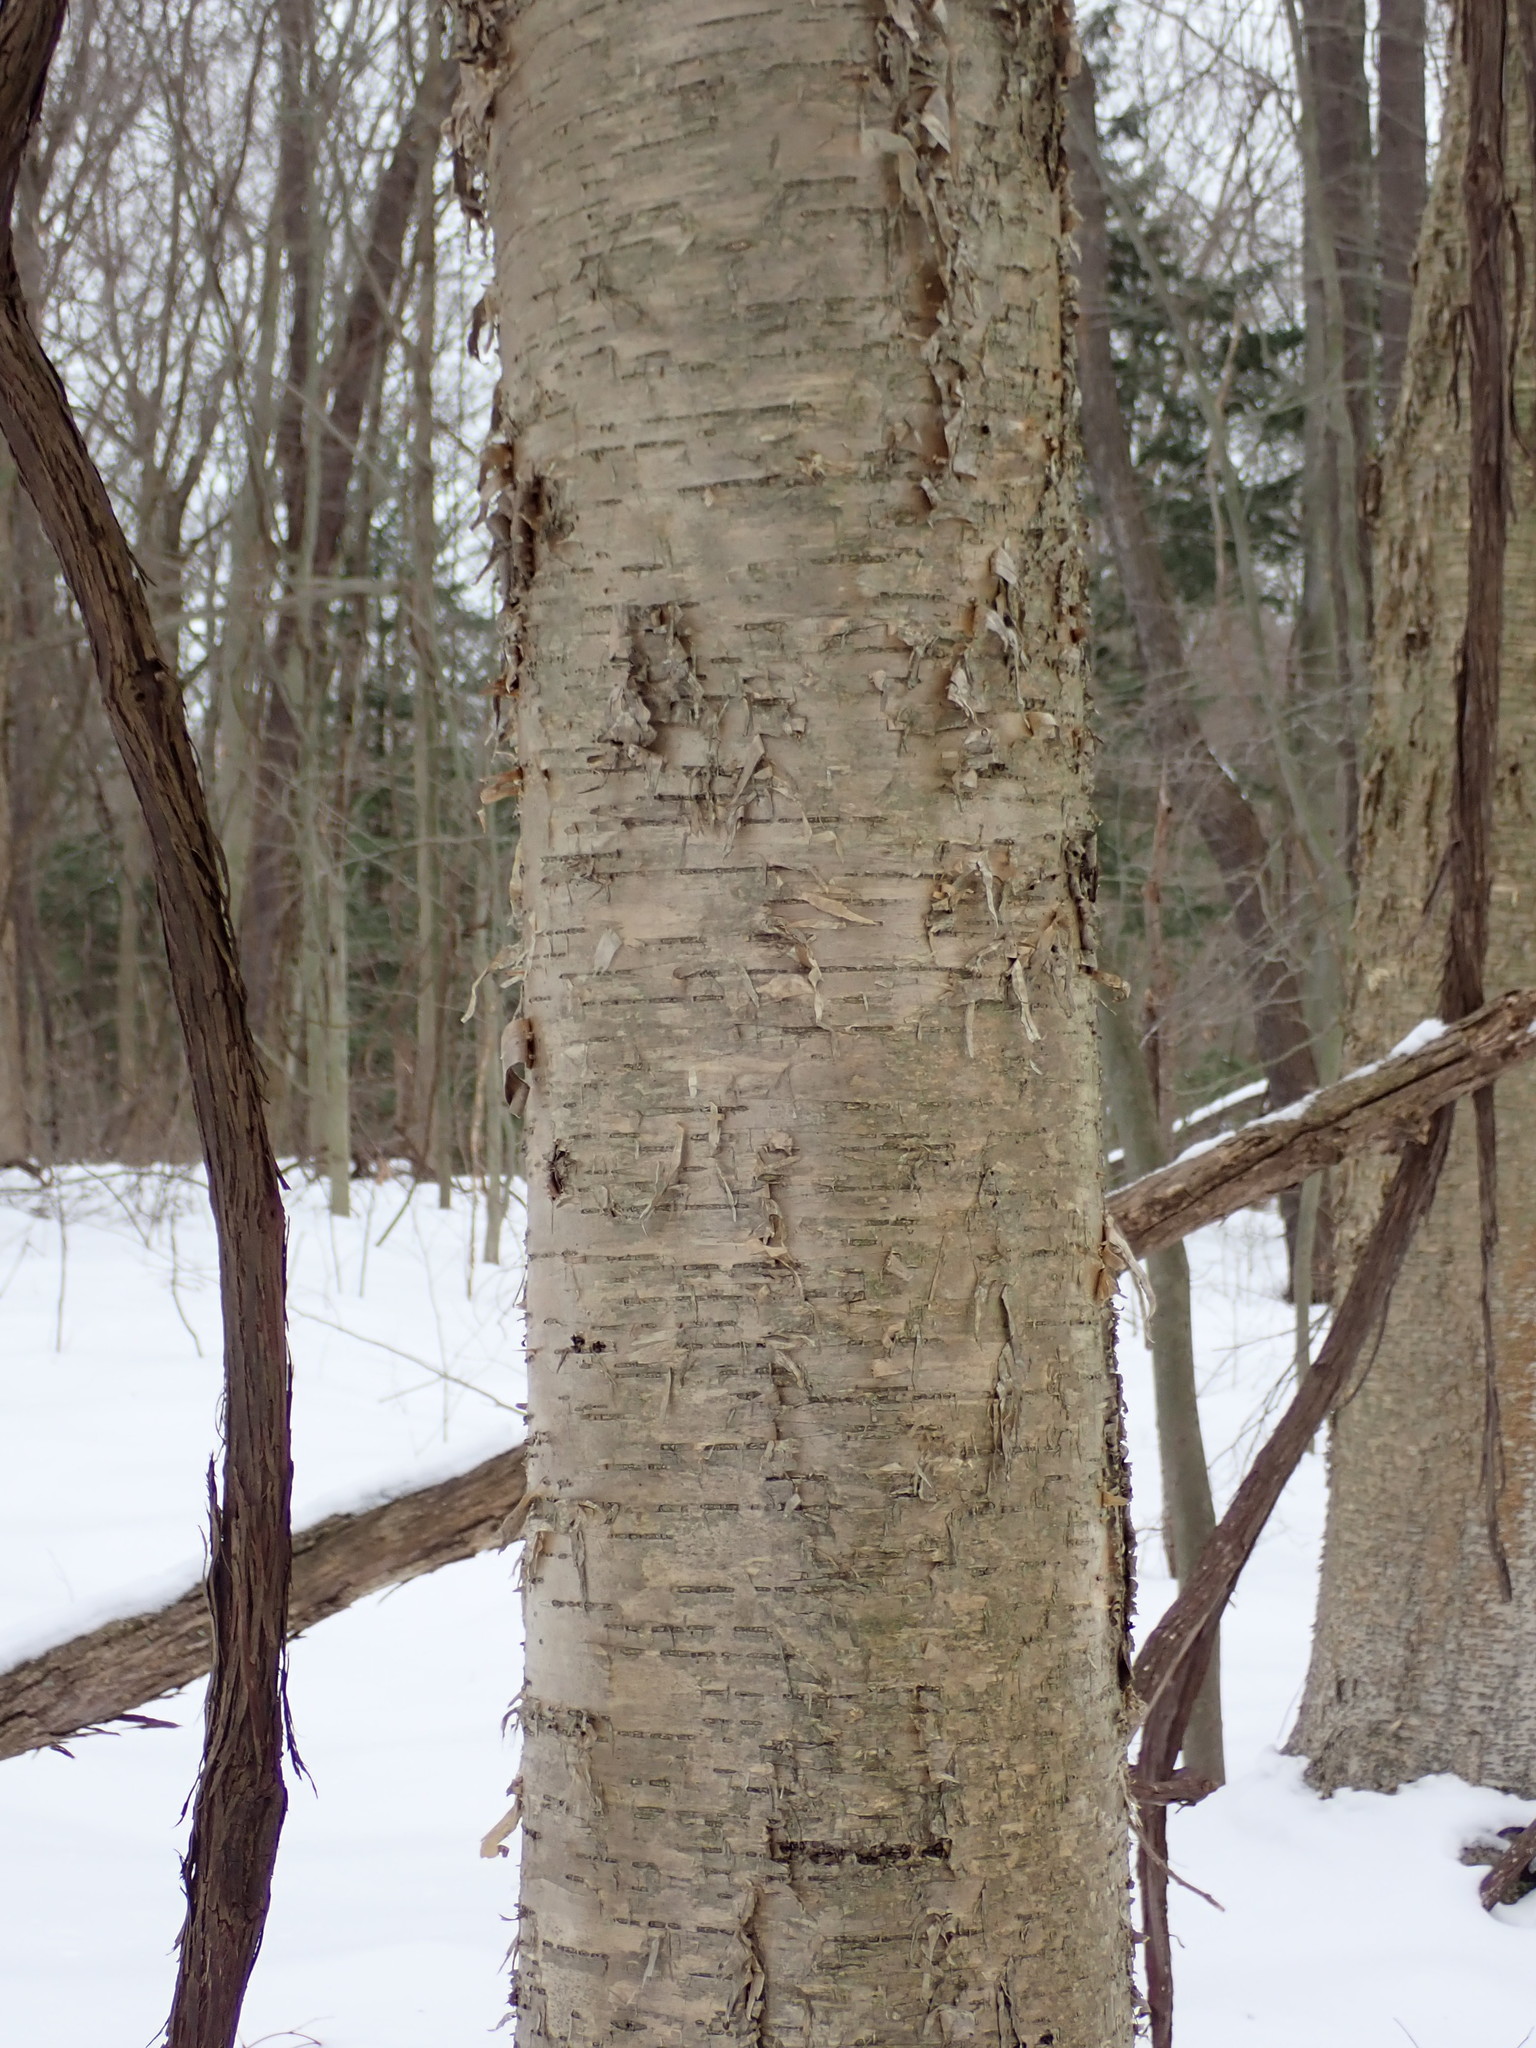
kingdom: Plantae
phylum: Tracheophyta
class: Magnoliopsida
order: Fagales
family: Betulaceae
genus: Betula
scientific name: Betula alleghaniensis
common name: Yellow birch
